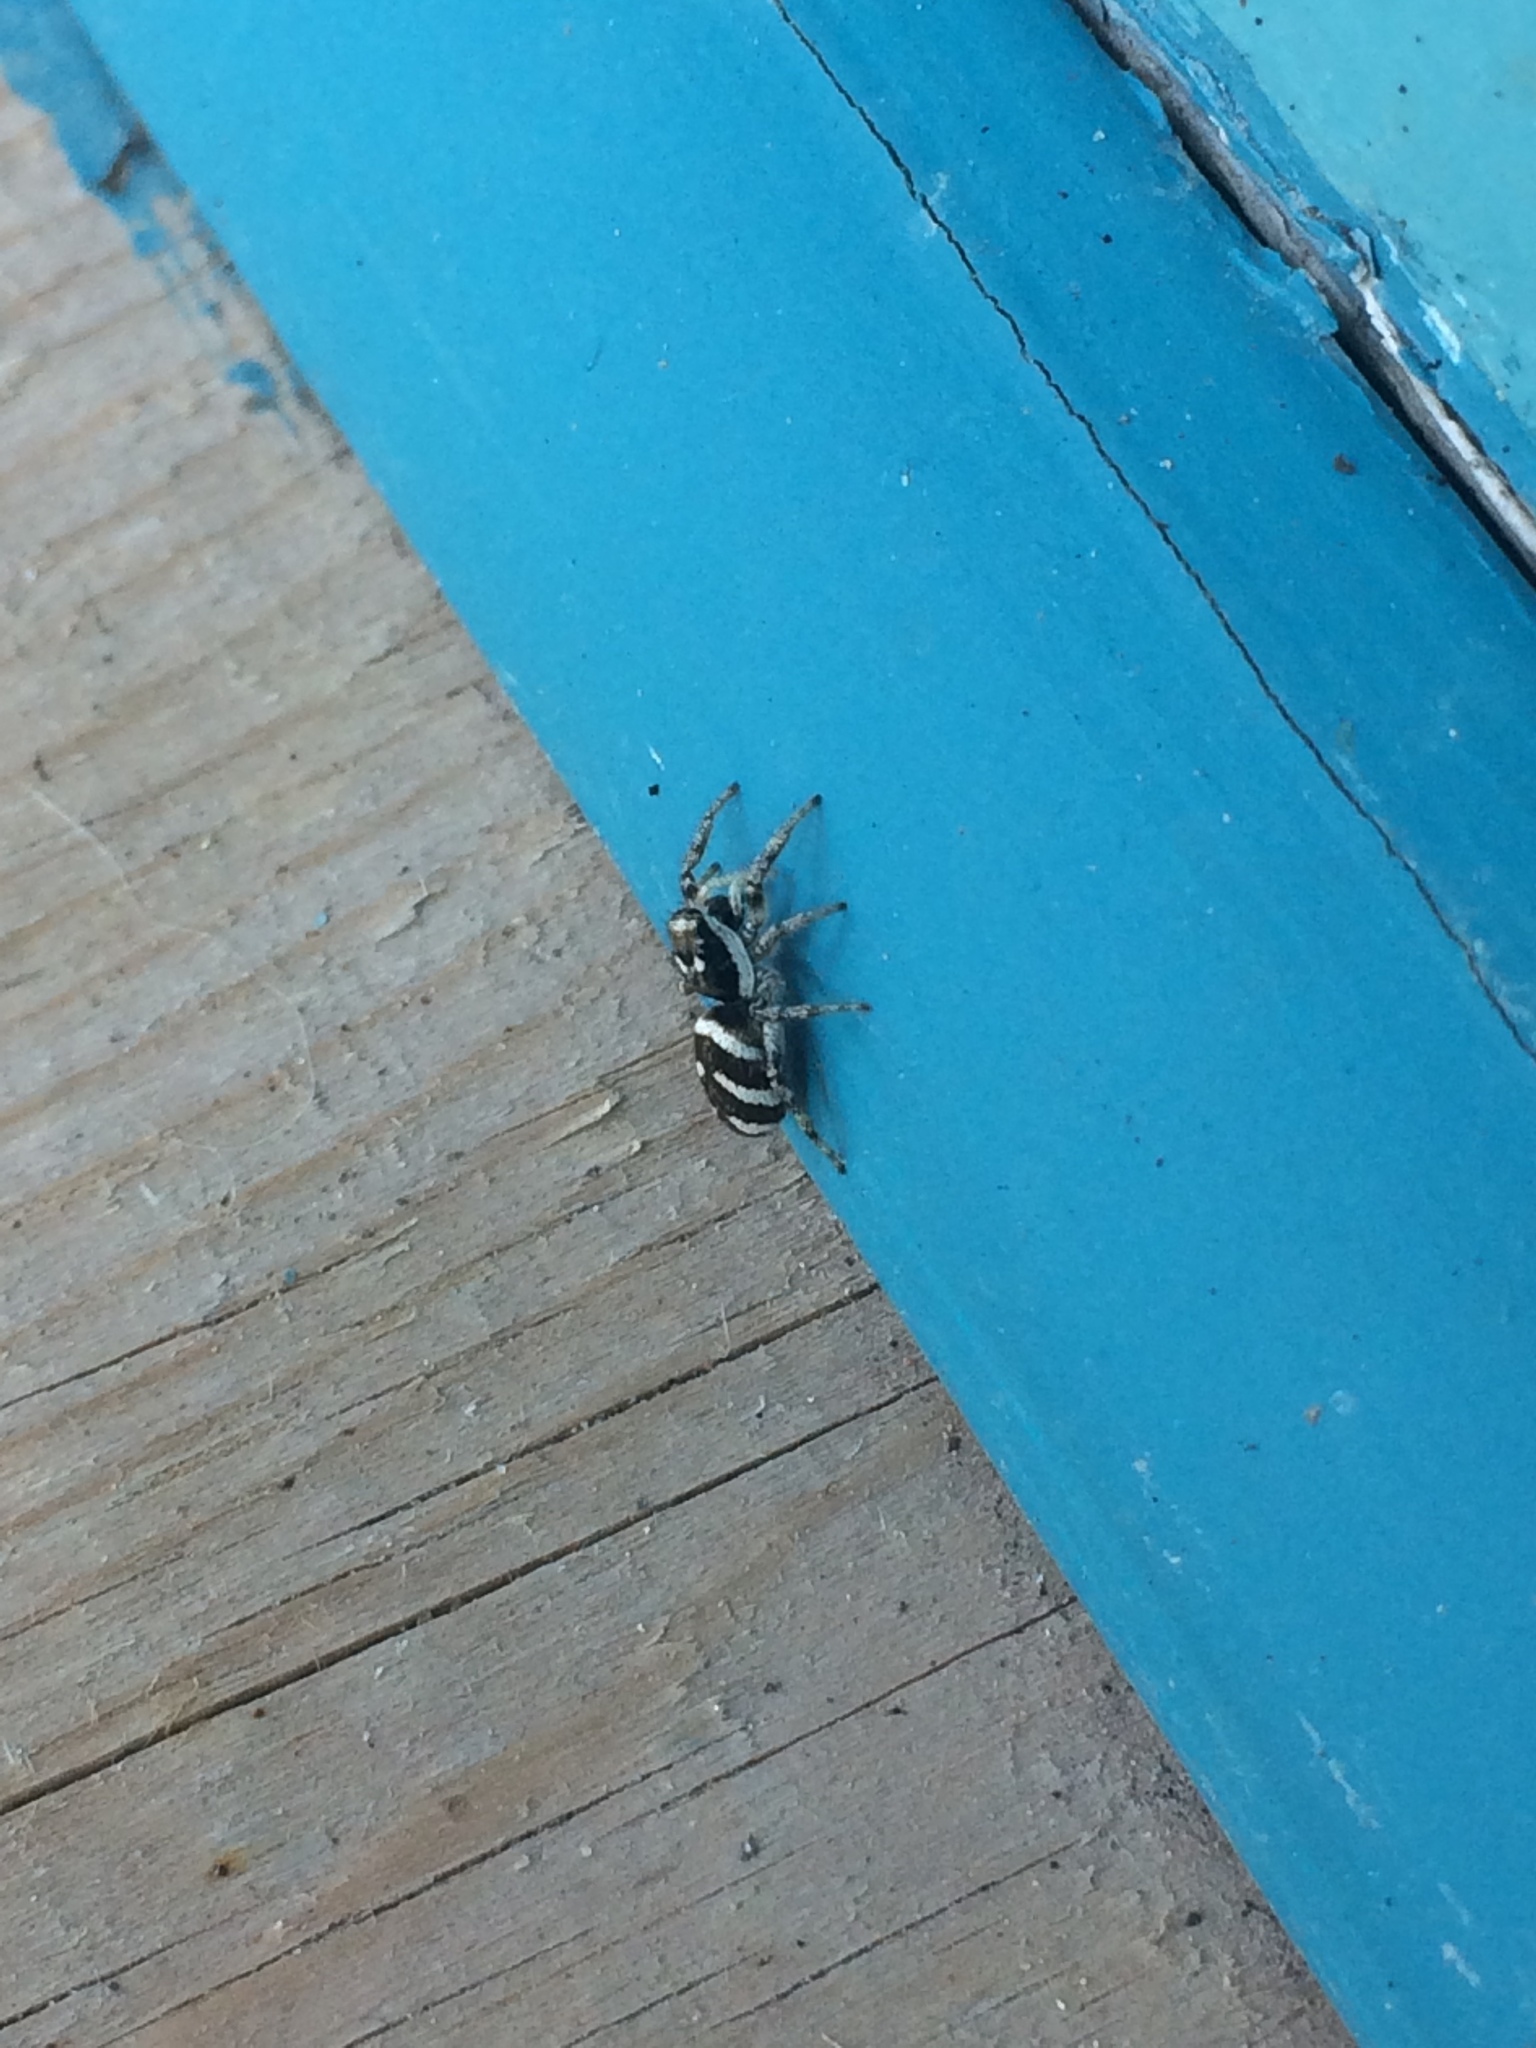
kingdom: Animalia
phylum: Arthropoda
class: Arachnida
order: Araneae
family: Salticidae
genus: Salticus
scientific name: Salticus scenicus
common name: Zebra jumper
